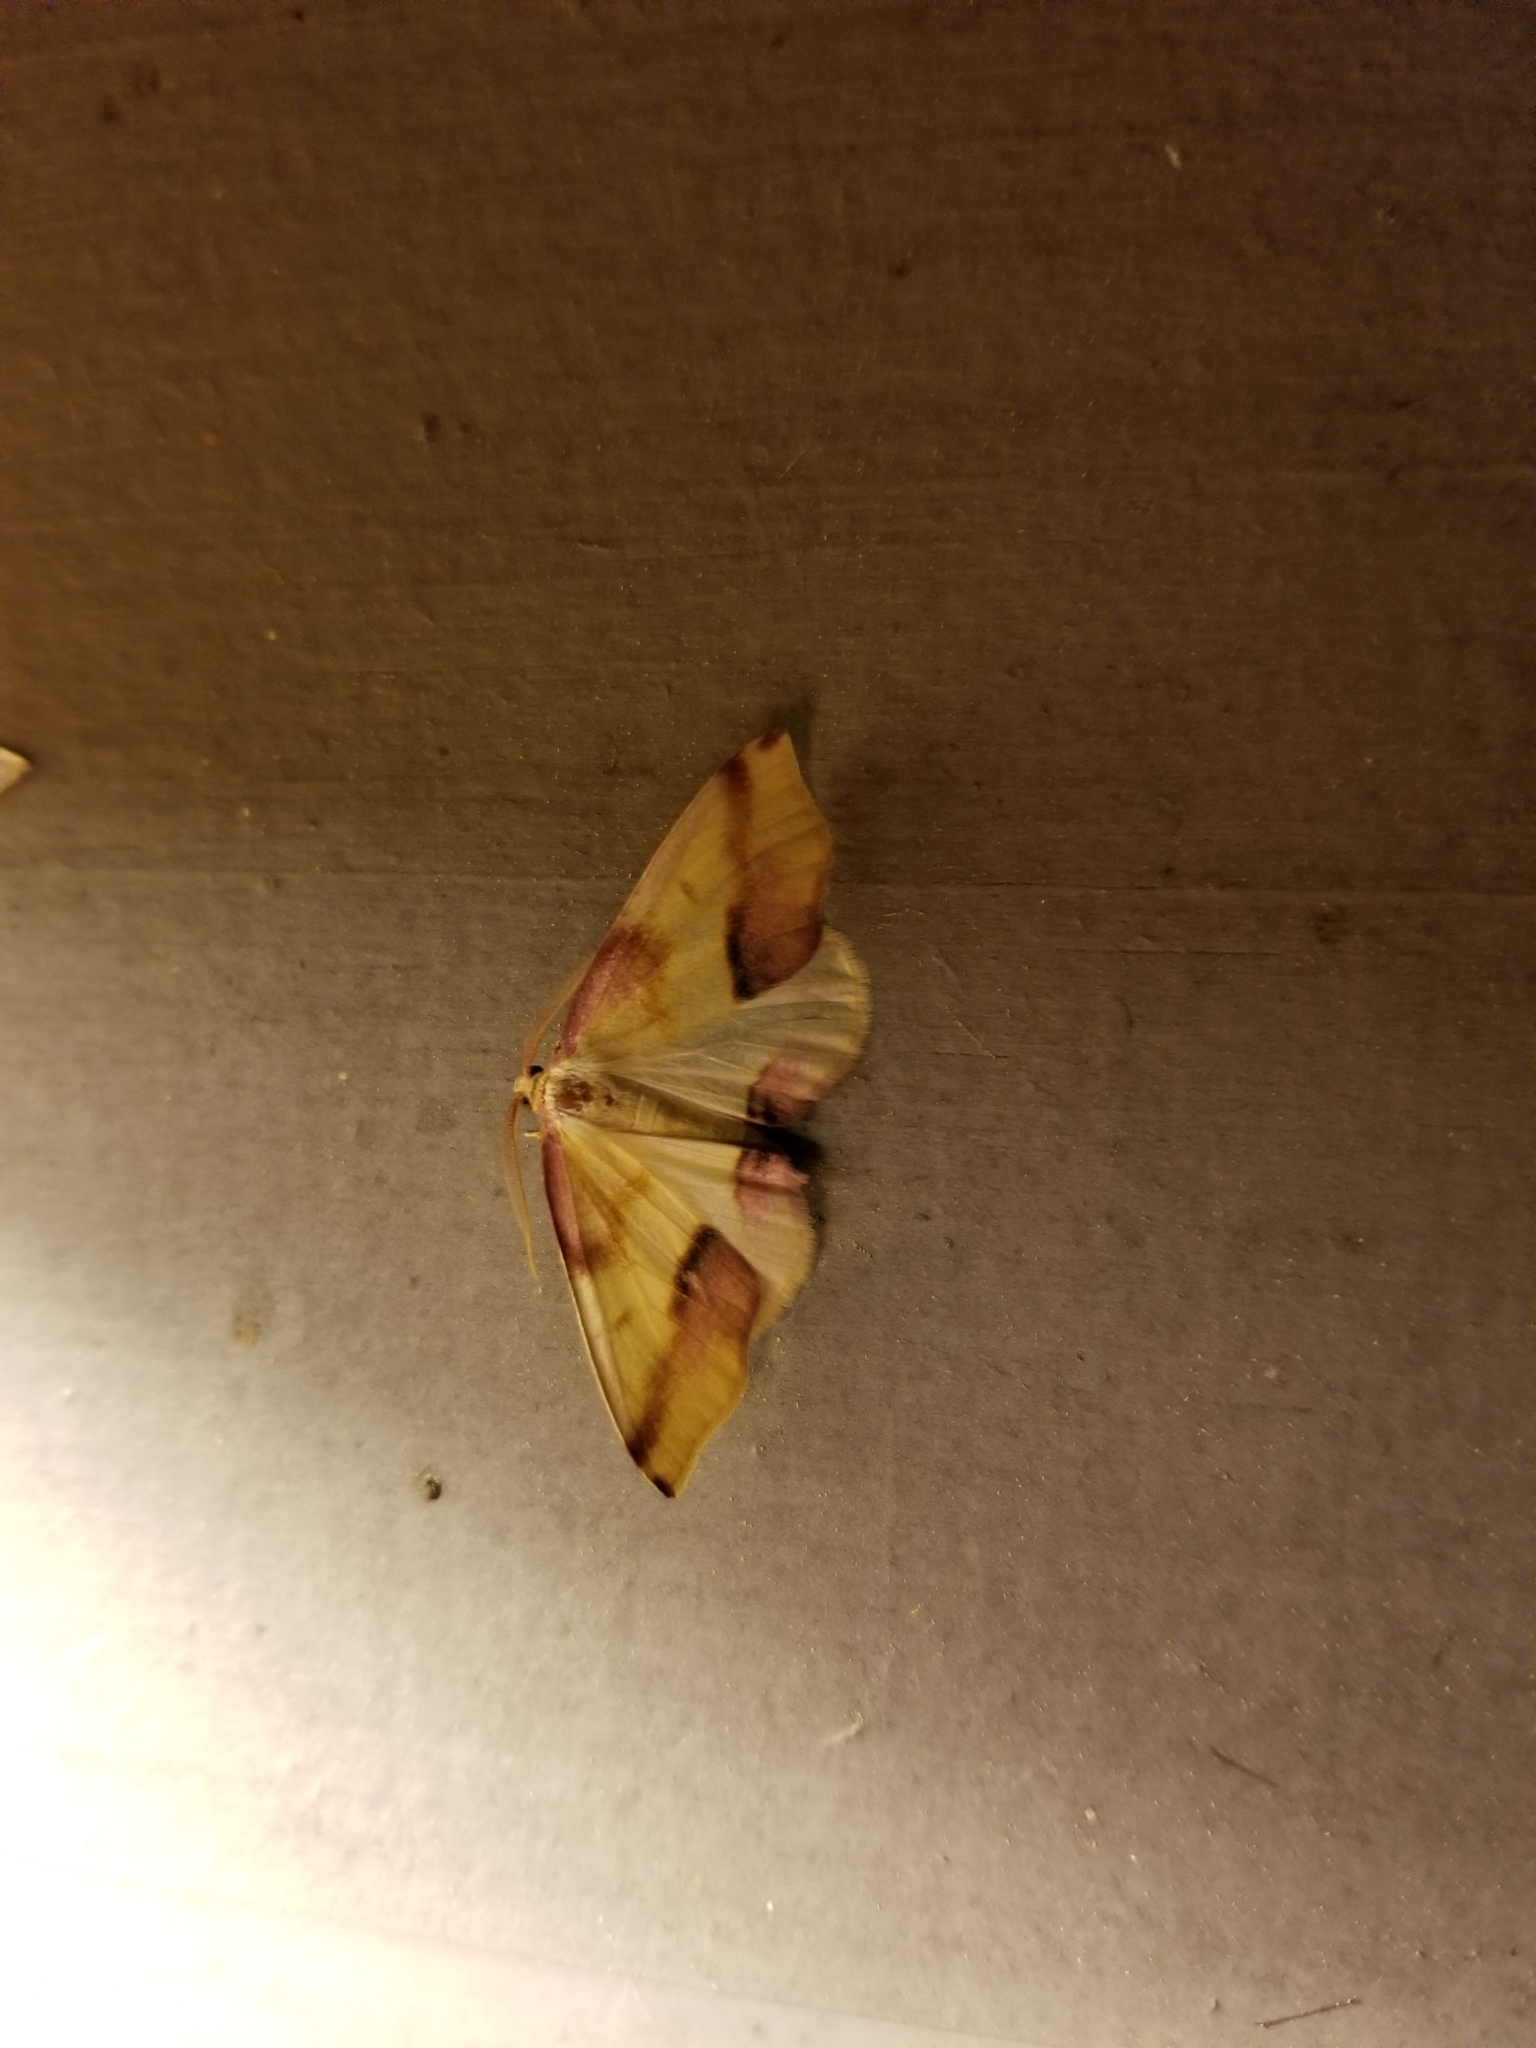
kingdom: Animalia
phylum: Arthropoda
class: Insecta
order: Lepidoptera
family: Geometridae
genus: Plagodis
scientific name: Plagodis serinaria
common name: Lemon plagodis
